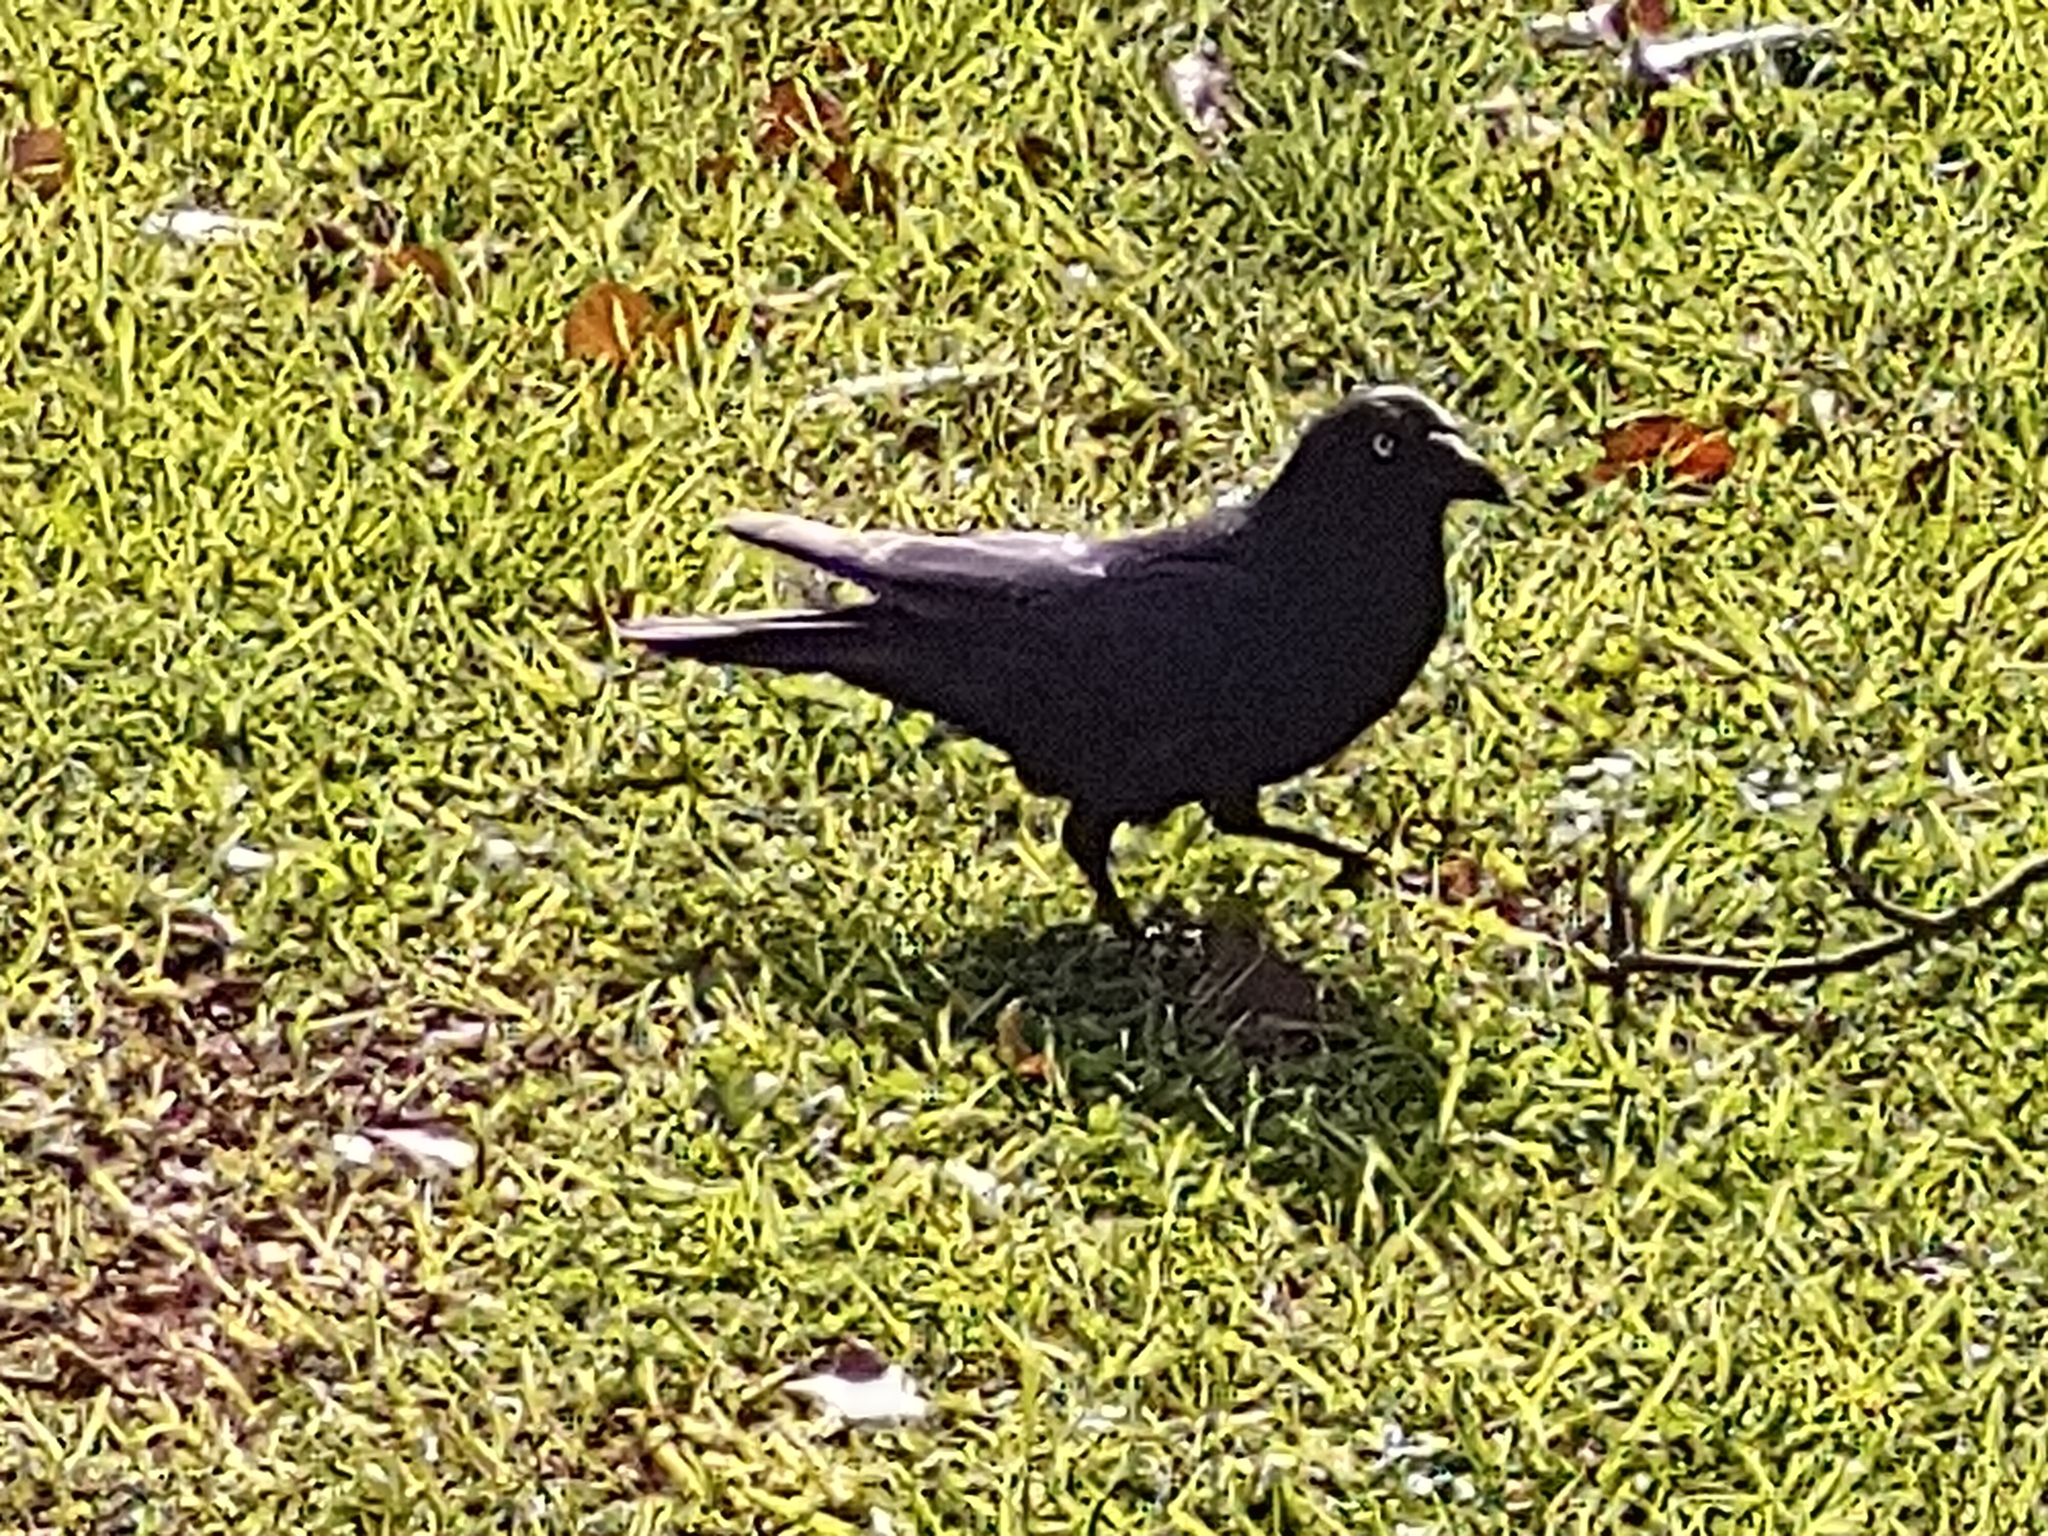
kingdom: Animalia
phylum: Chordata
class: Aves
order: Passeriformes
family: Corvidae
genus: Corvus
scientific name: Corvus mellori
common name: Little raven
